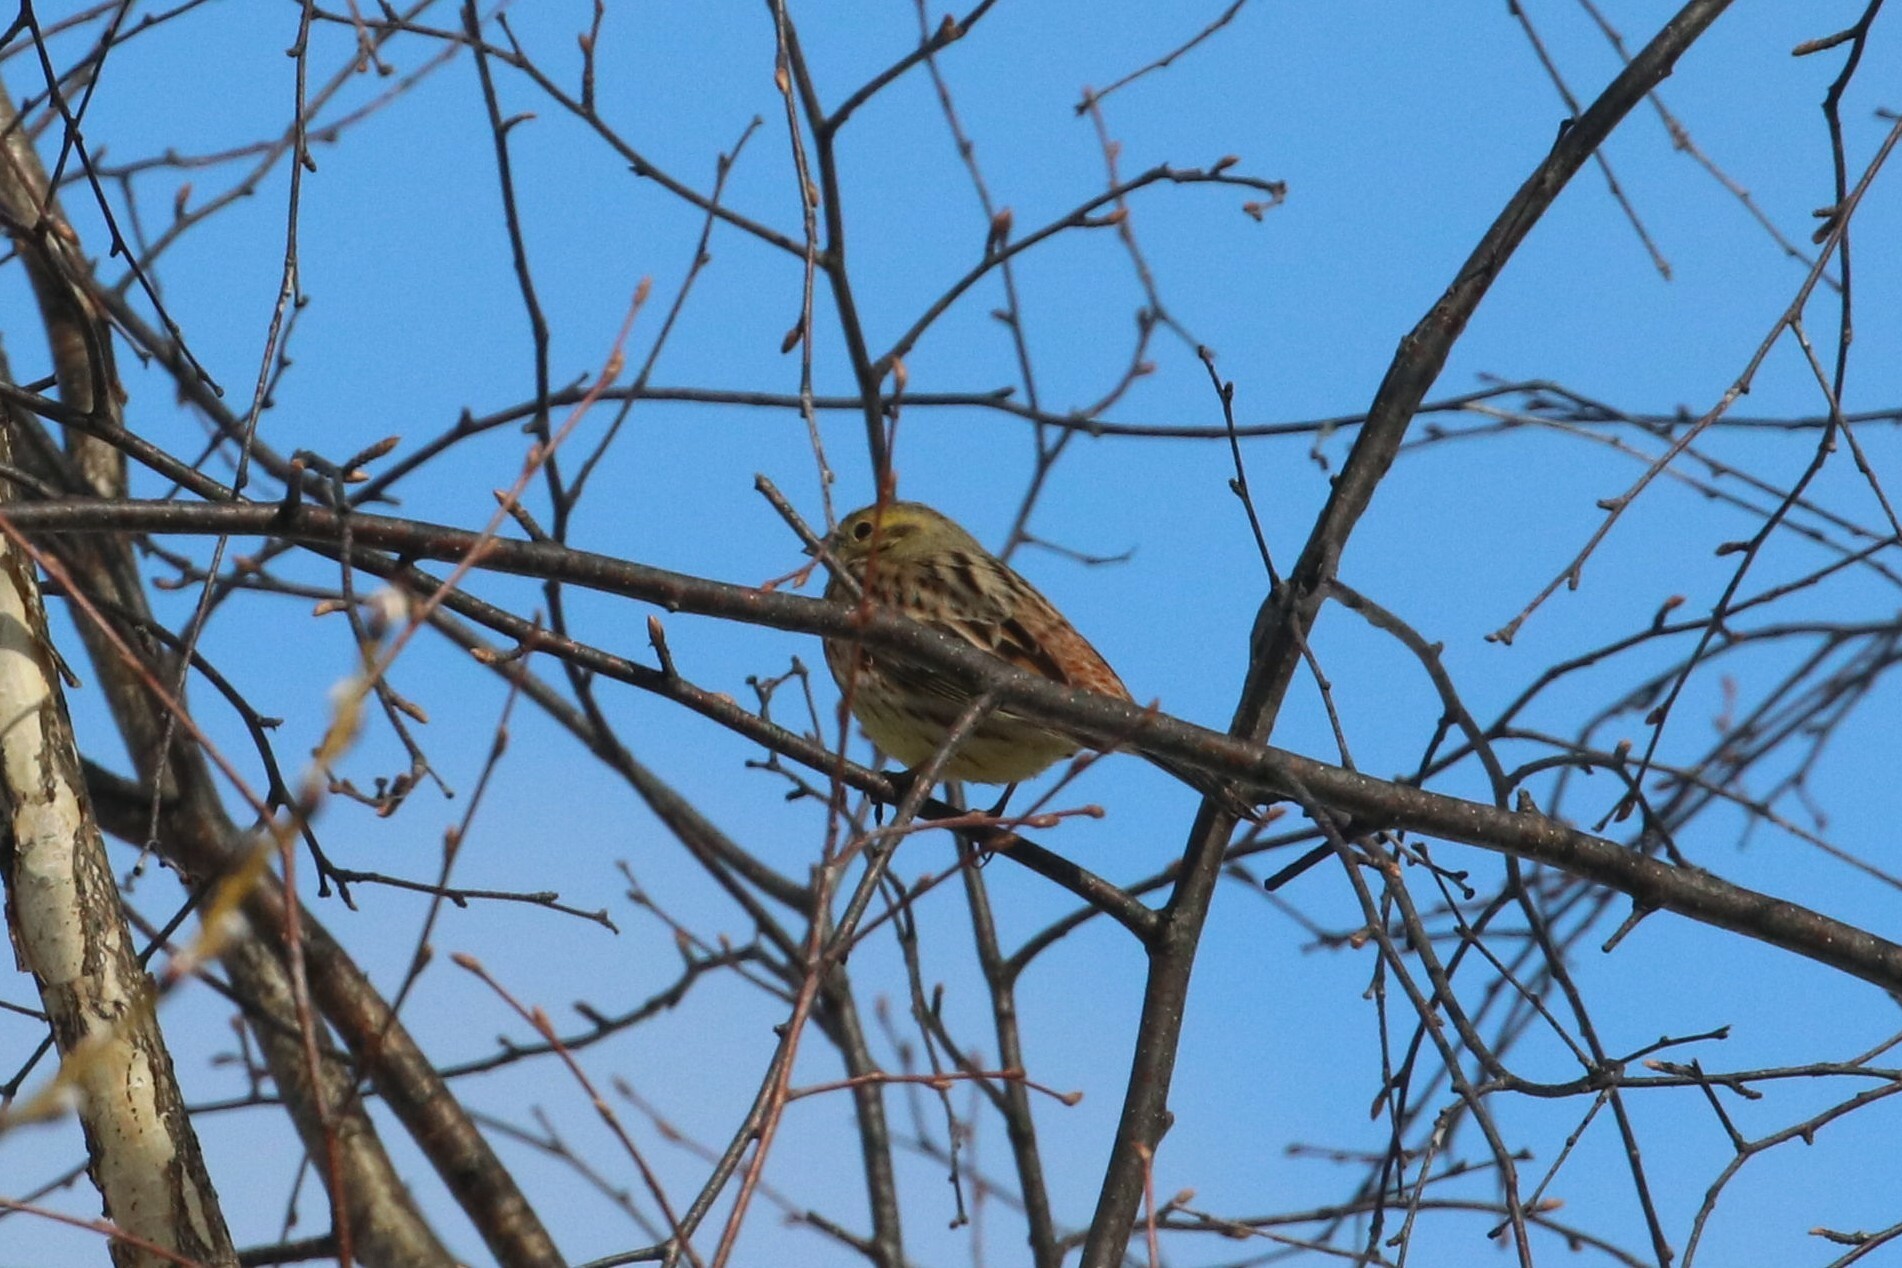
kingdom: Animalia
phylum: Chordata
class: Aves
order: Passeriformes
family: Emberizidae
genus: Emberiza
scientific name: Emberiza citrinella
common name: Yellowhammer
